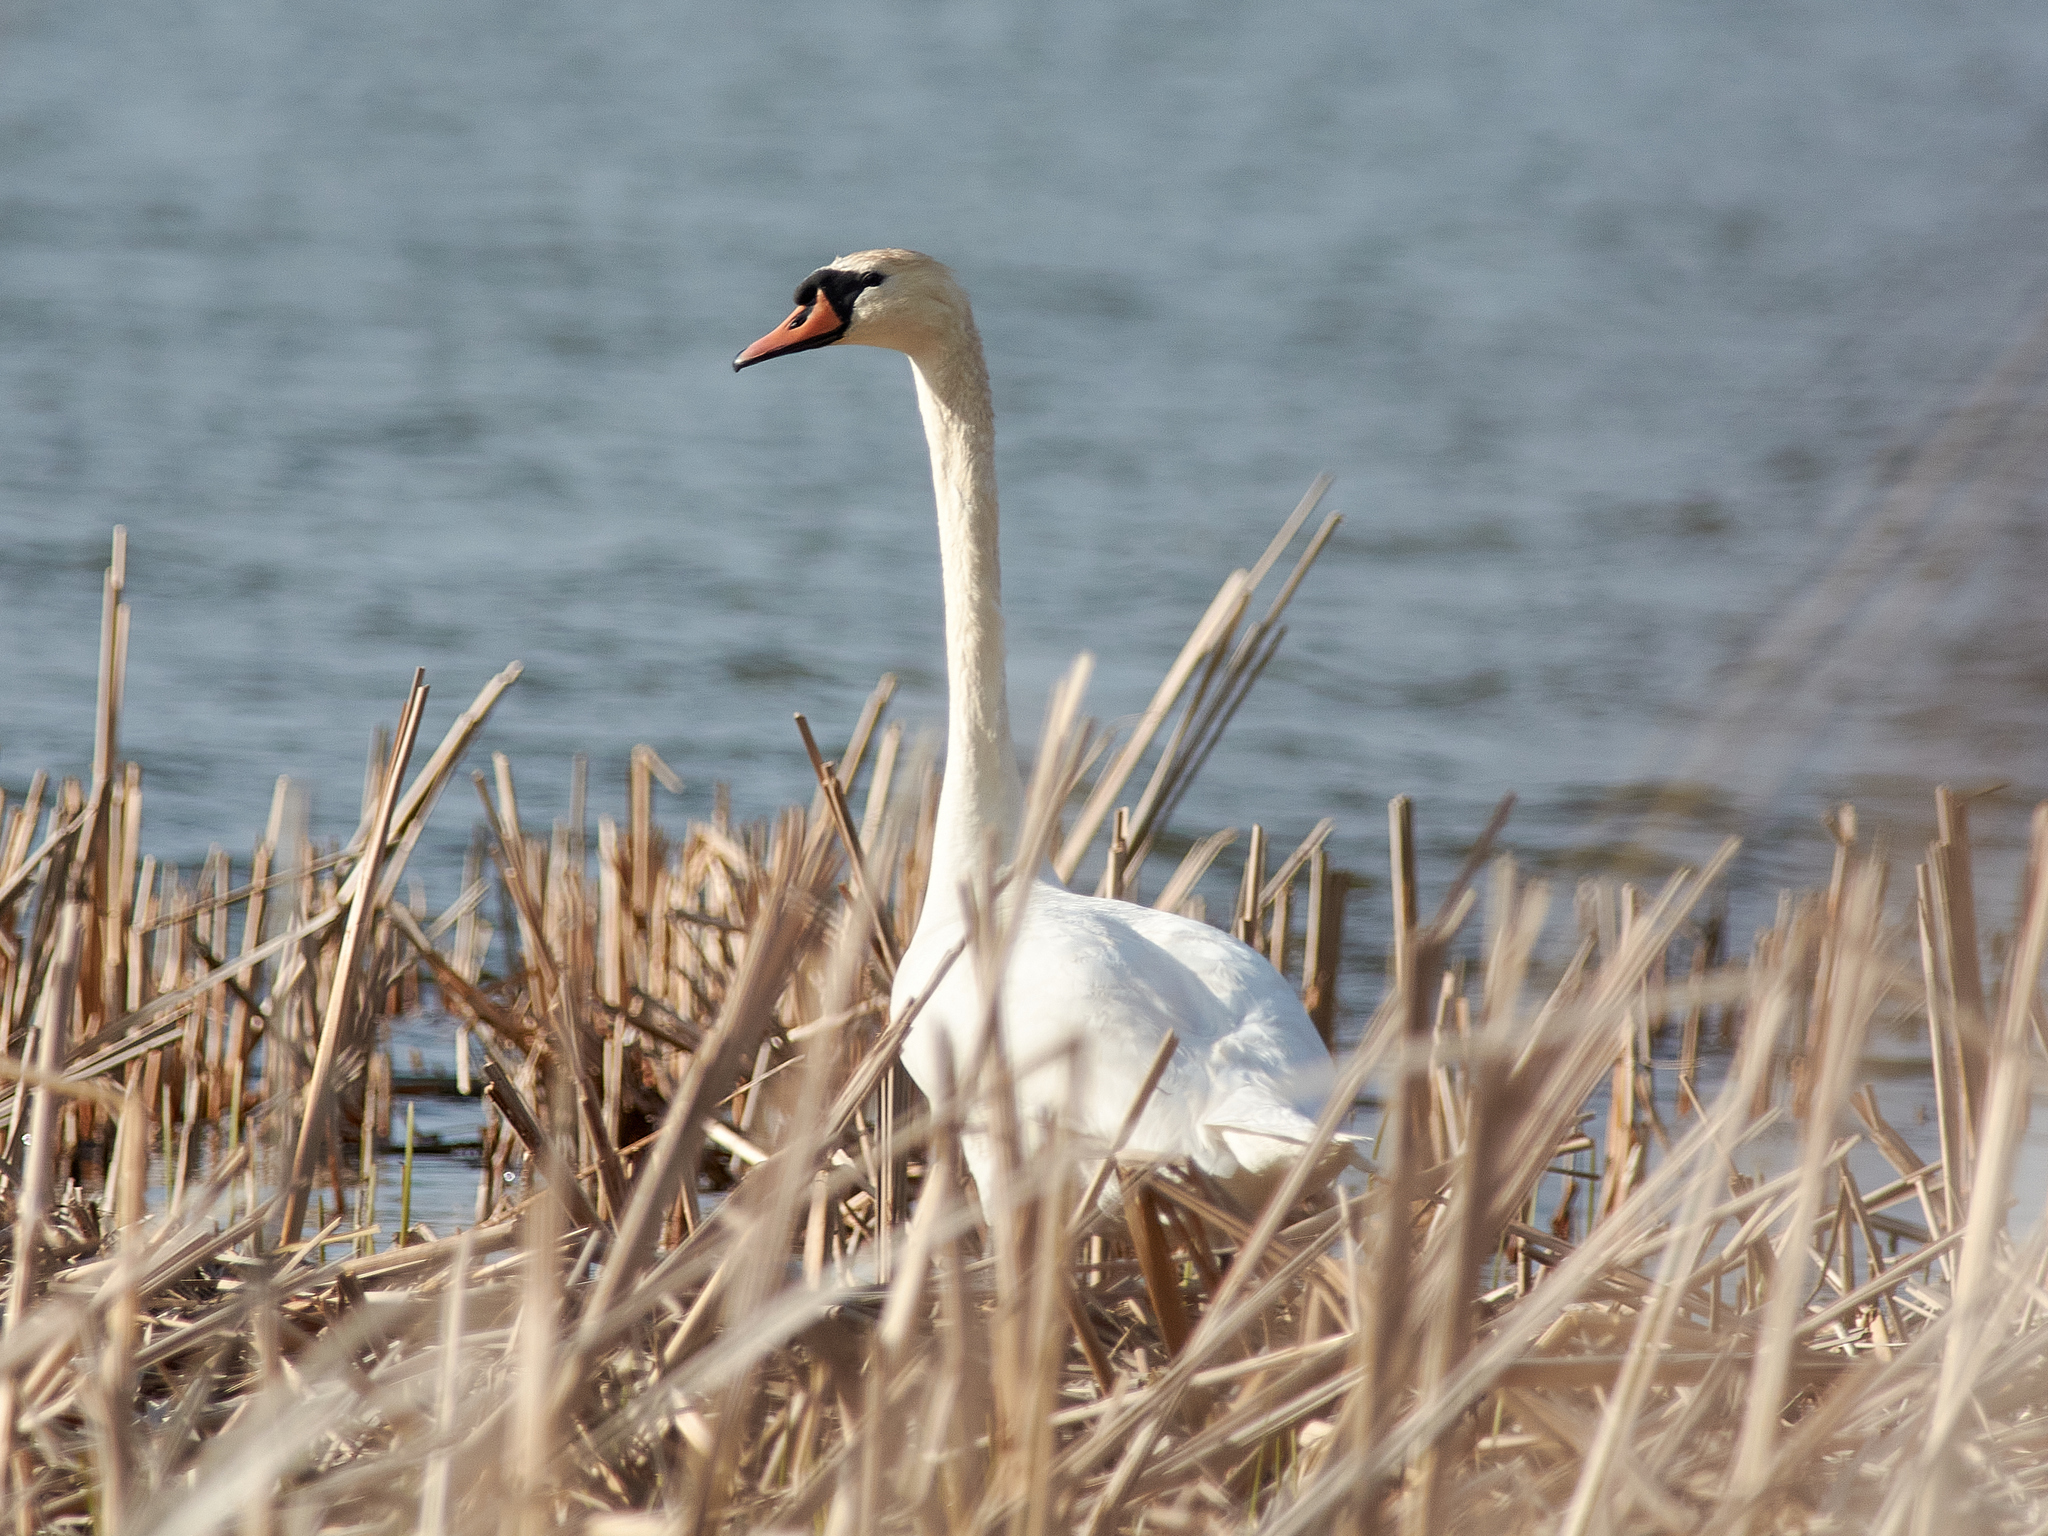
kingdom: Animalia
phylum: Chordata
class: Aves
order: Anseriformes
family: Anatidae
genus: Cygnus
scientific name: Cygnus olor
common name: Mute swan
